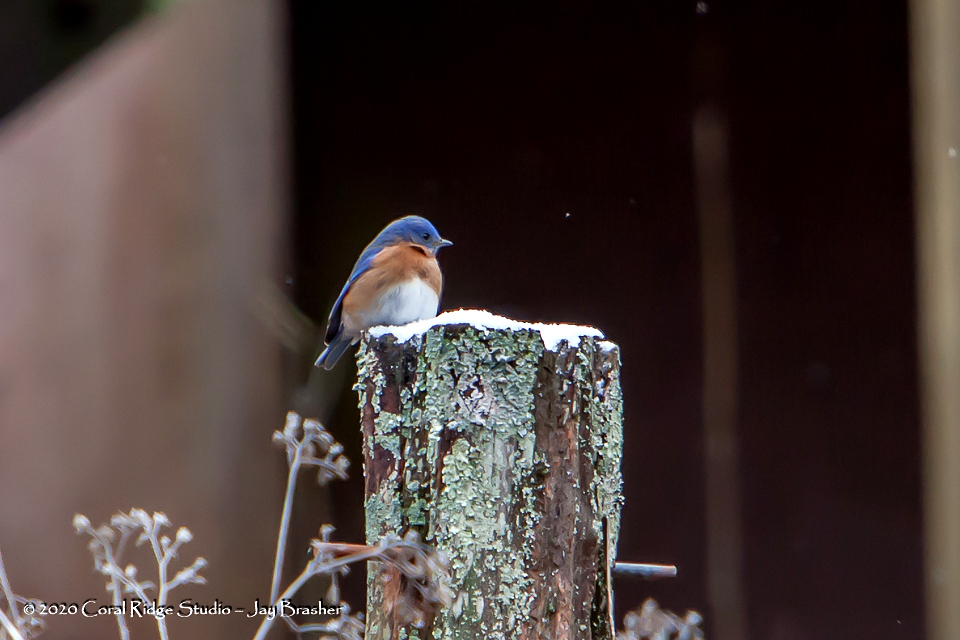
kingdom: Animalia
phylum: Chordata
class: Aves
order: Passeriformes
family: Turdidae
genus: Sialia
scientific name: Sialia sialis
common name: Eastern bluebird
